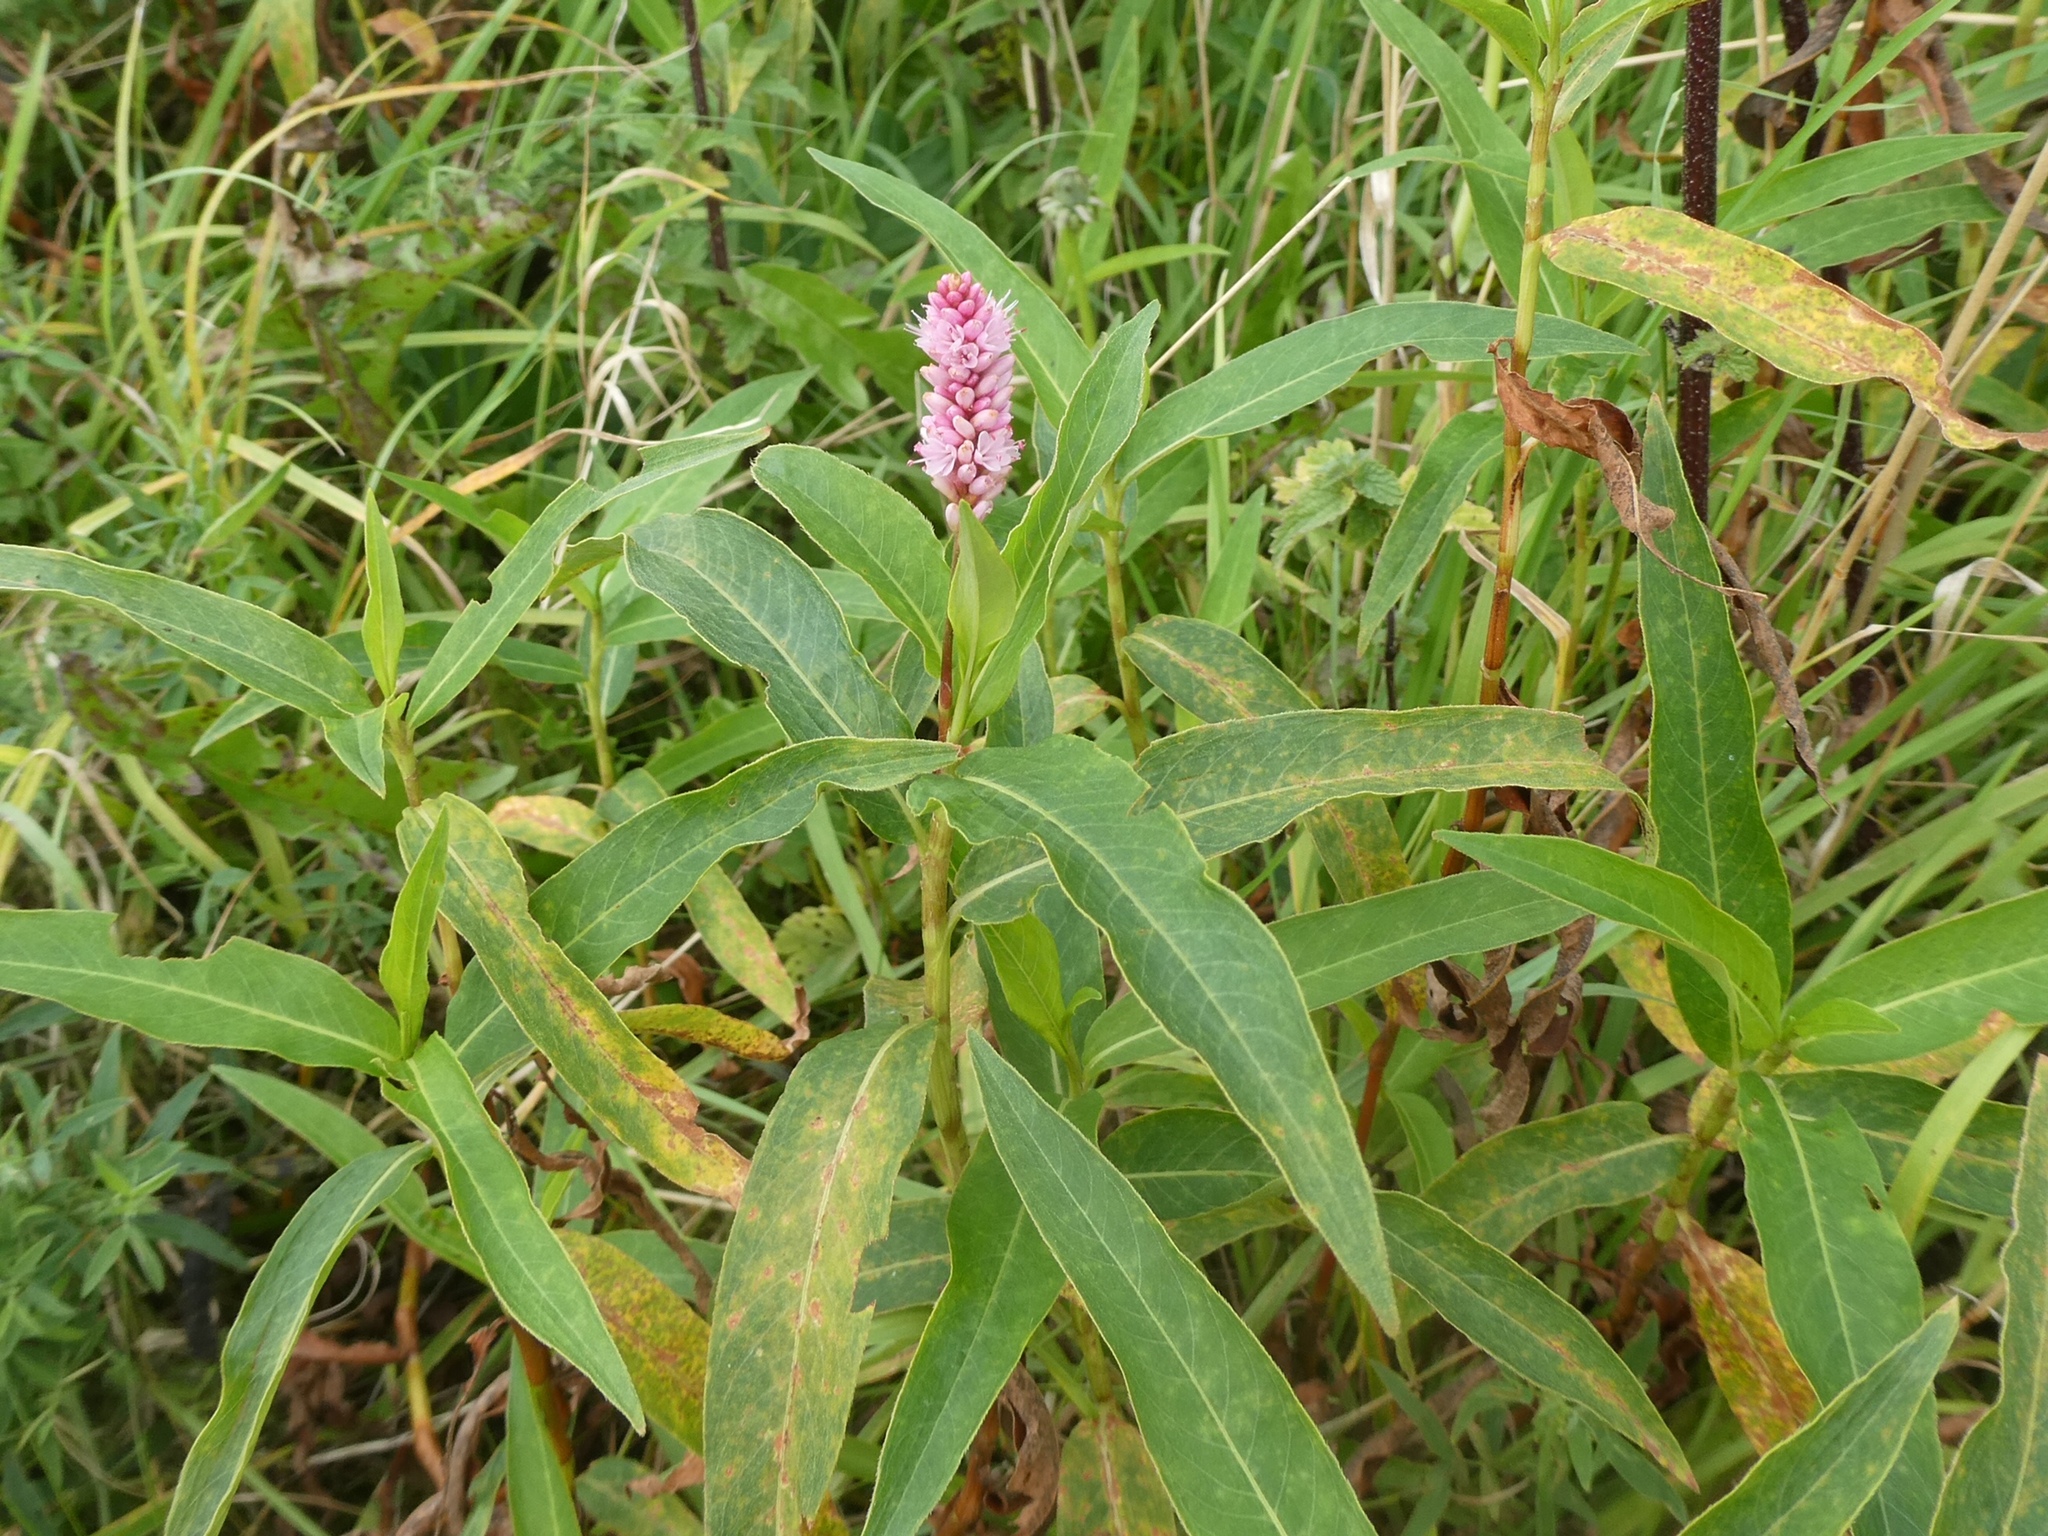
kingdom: Plantae
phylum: Tracheophyta
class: Magnoliopsida
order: Caryophyllales
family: Polygonaceae
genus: Persicaria
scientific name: Persicaria amphibia
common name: Amphibious bistort
